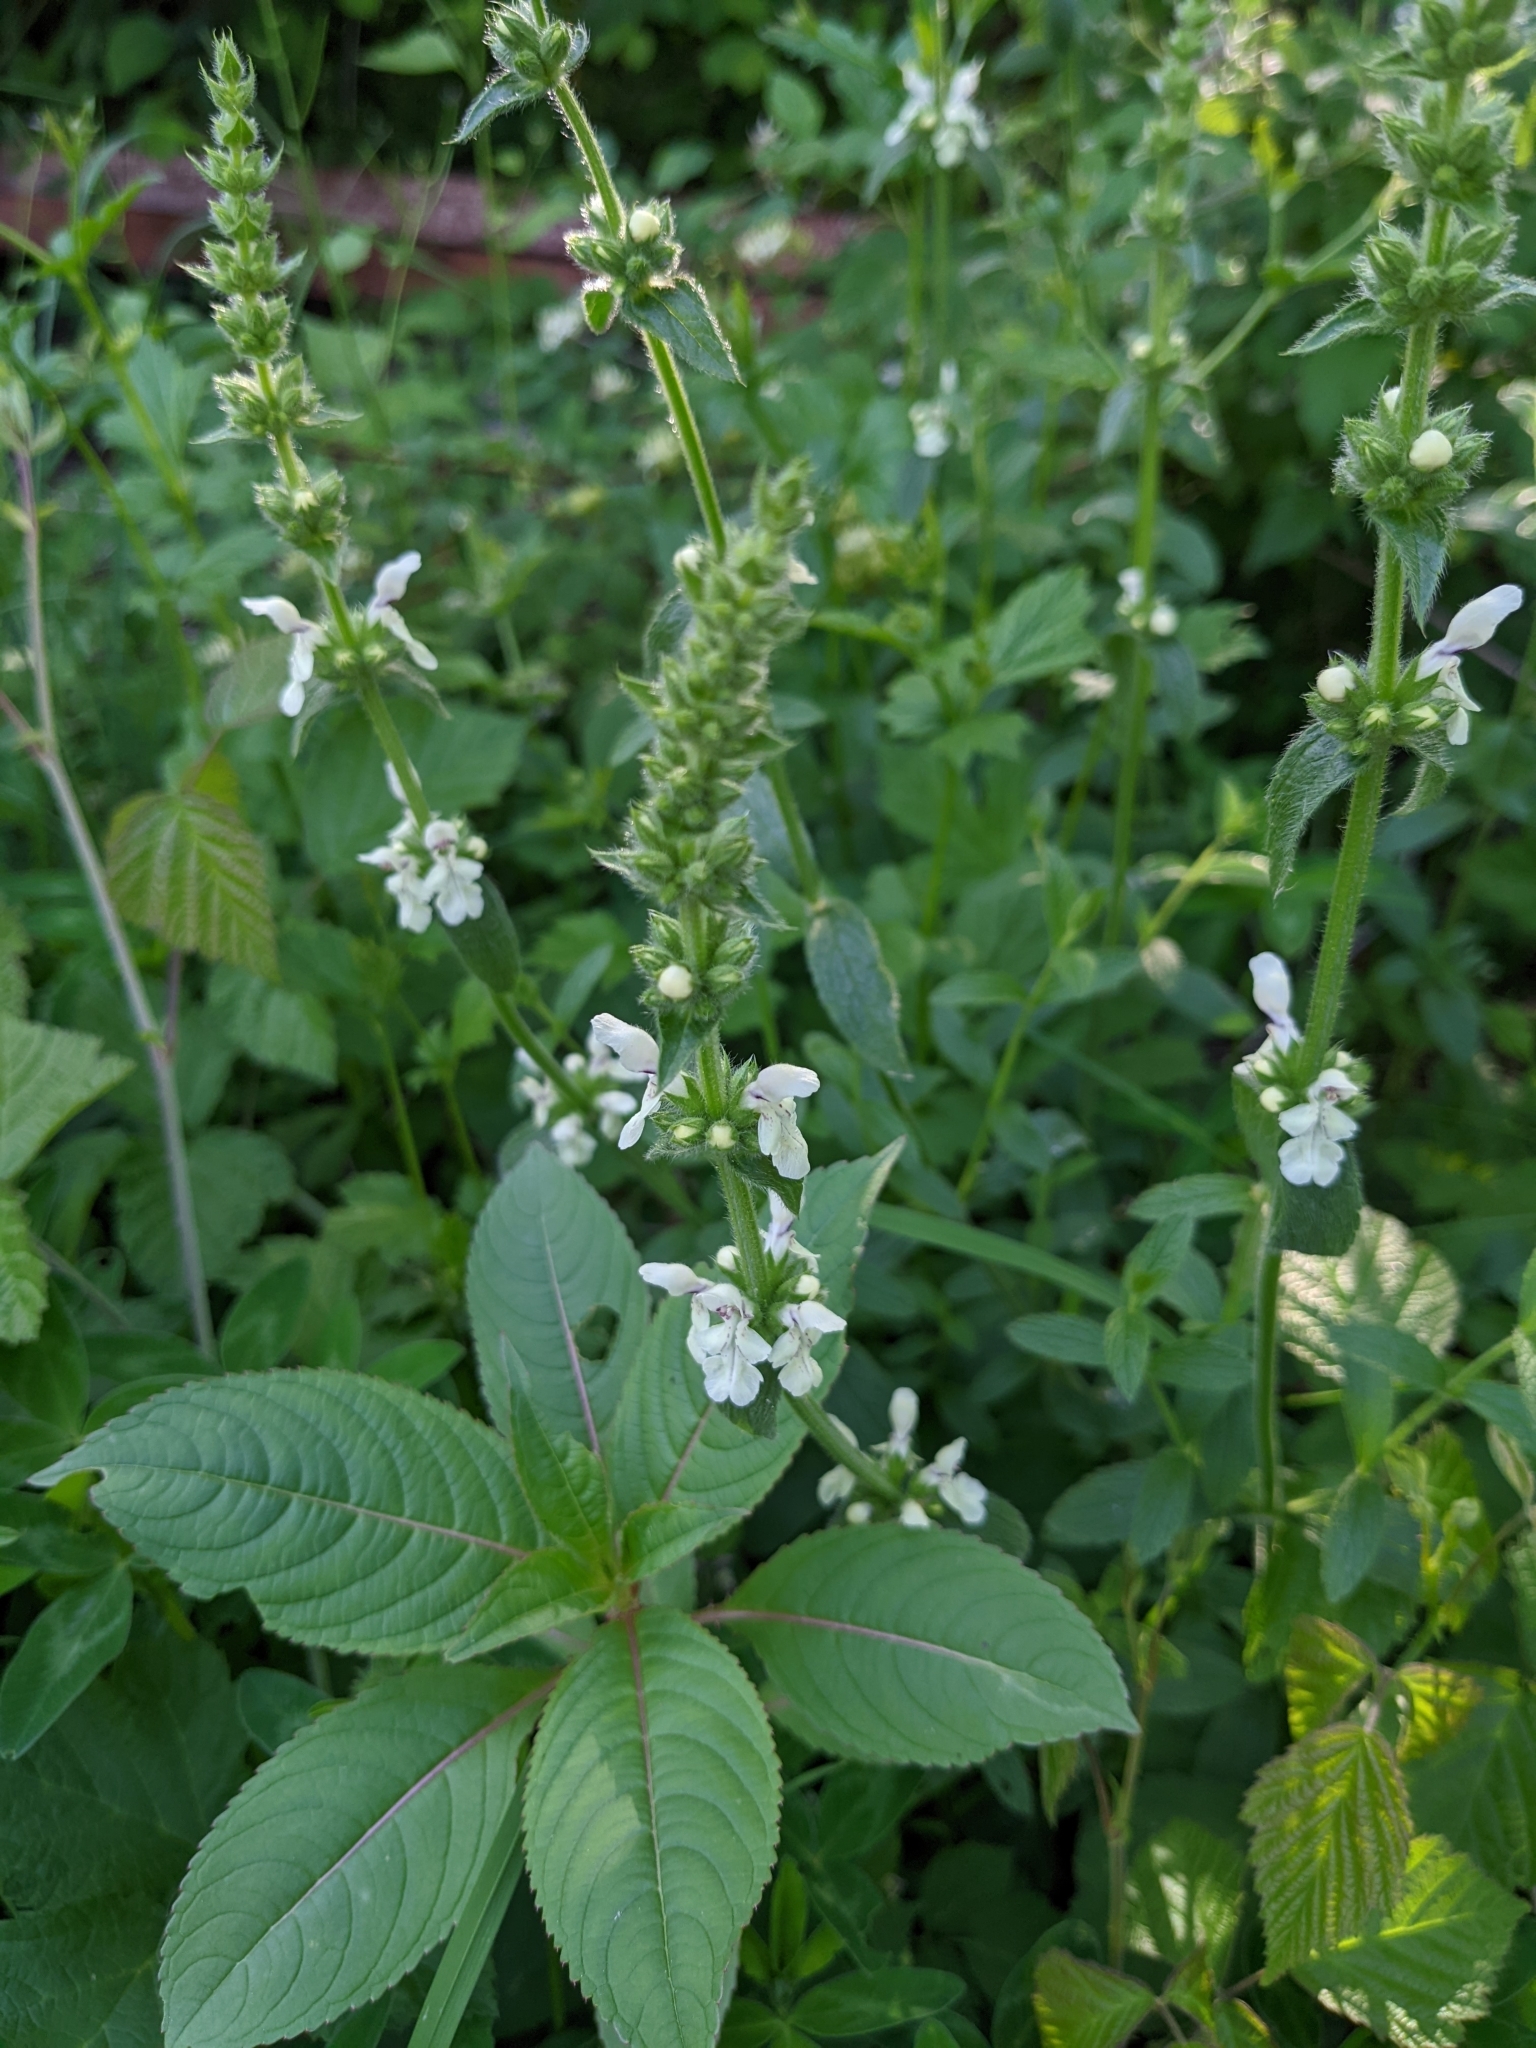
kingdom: Plantae
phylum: Tracheophyta
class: Magnoliopsida
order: Lamiales
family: Lamiaceae
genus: Stachys
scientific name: Stachys recta
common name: Perennial yellow-woundwort
